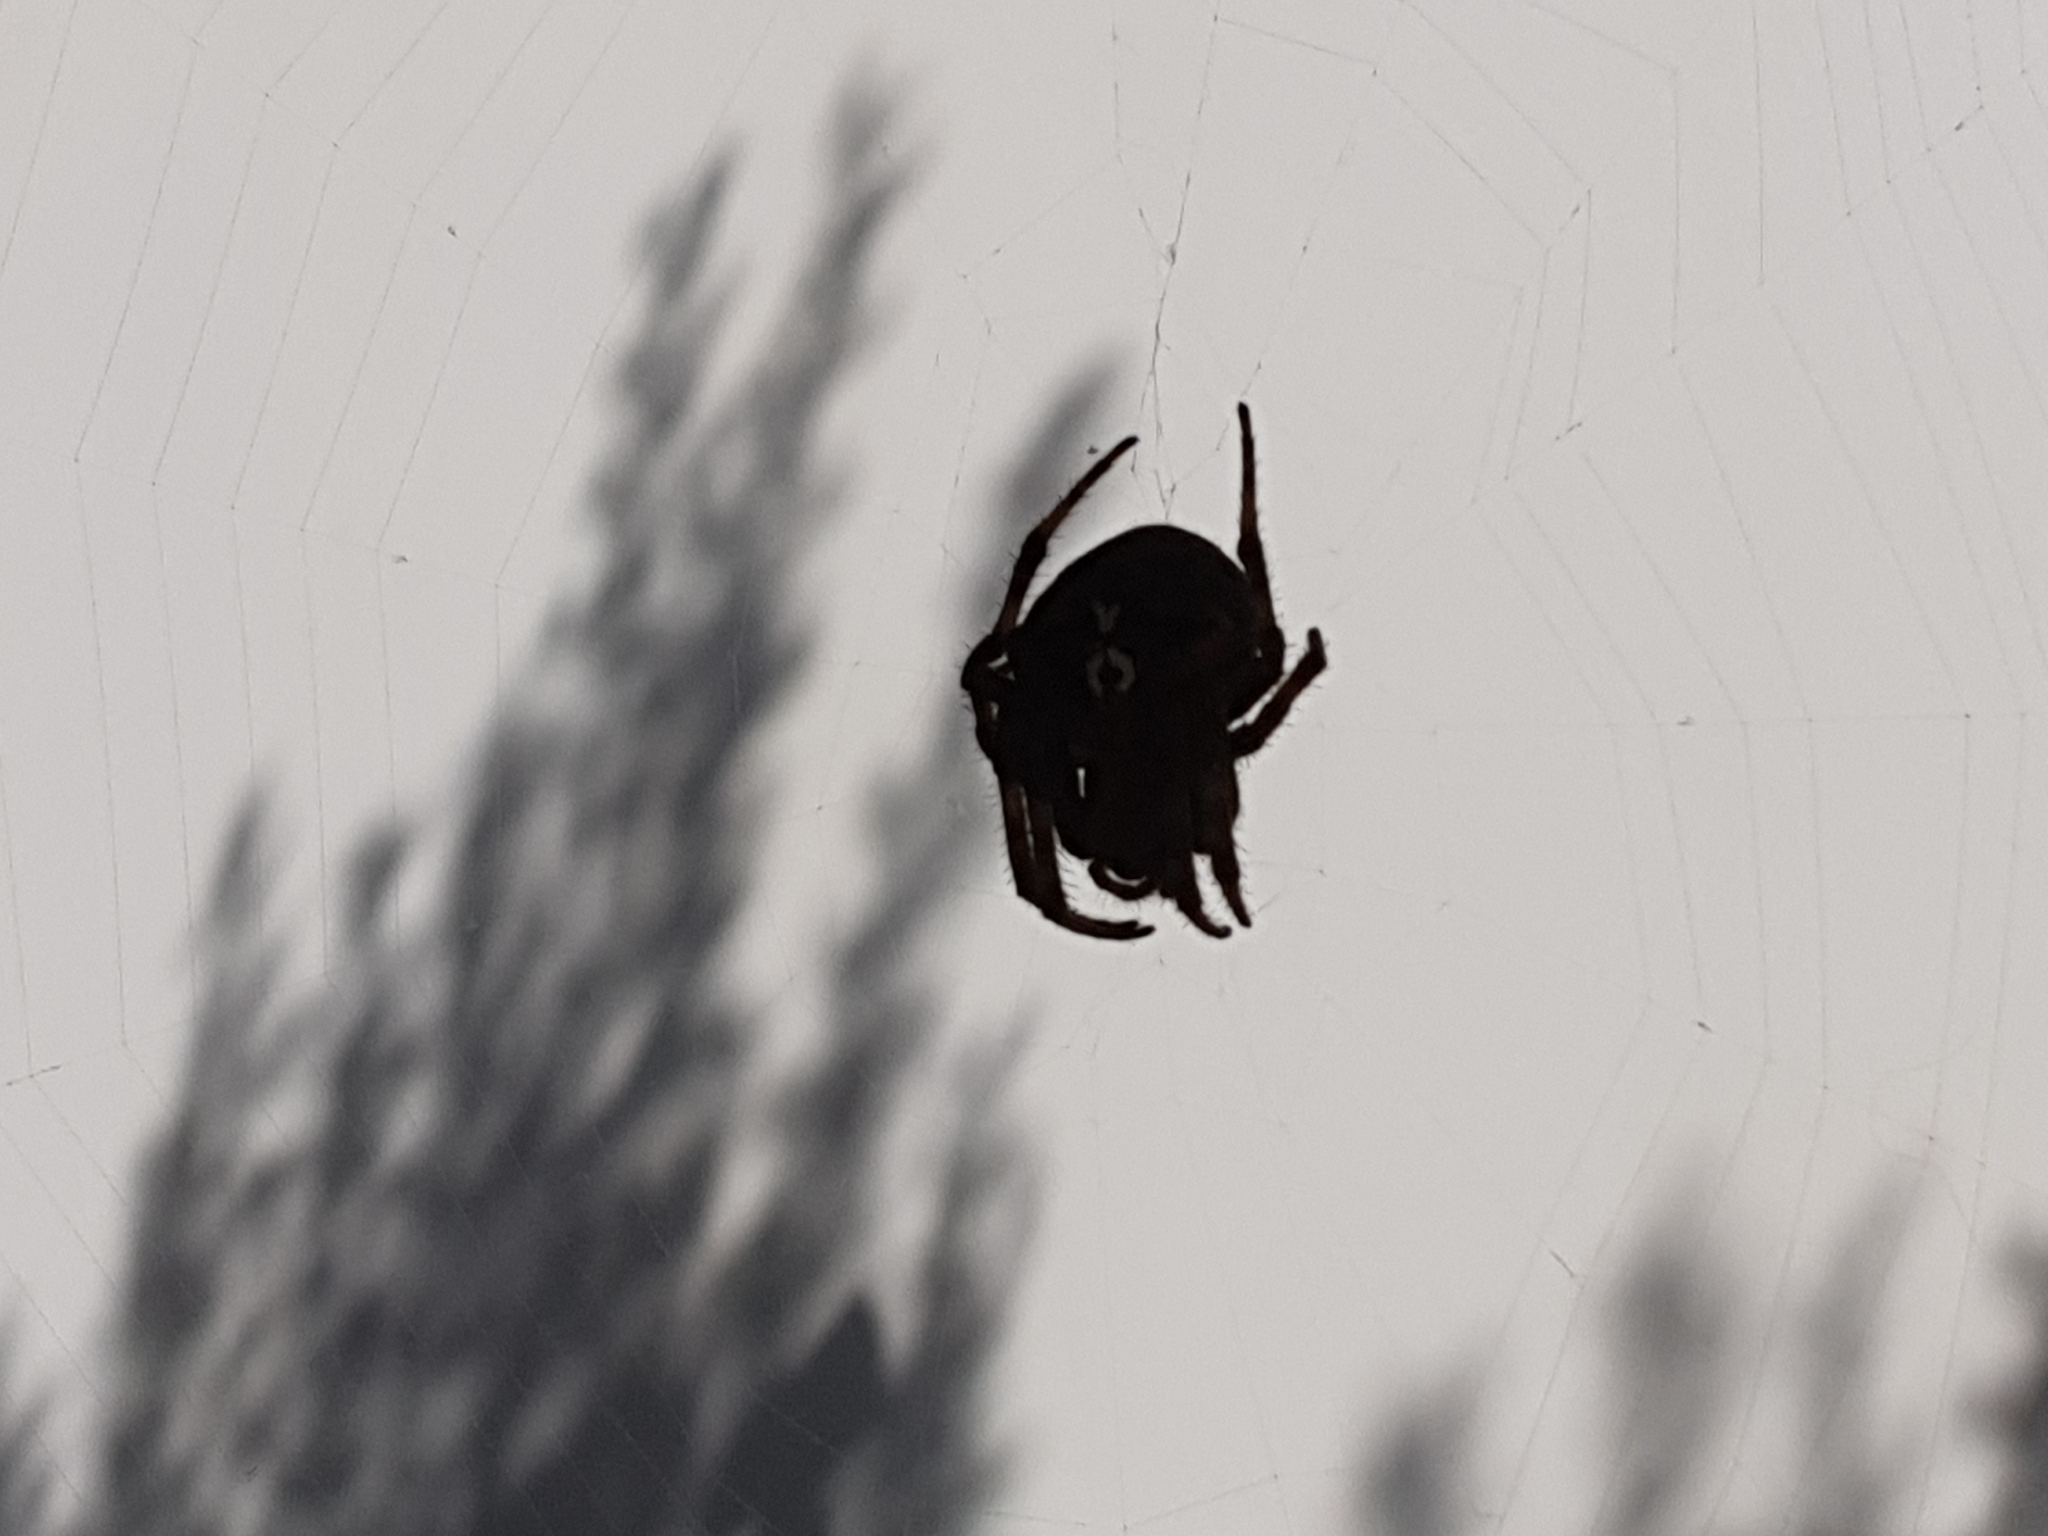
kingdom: Animalia
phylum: Arthropoda
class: Arachnida
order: Araneae
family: Araneidae
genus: Araneus
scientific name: Araneus angulatus
